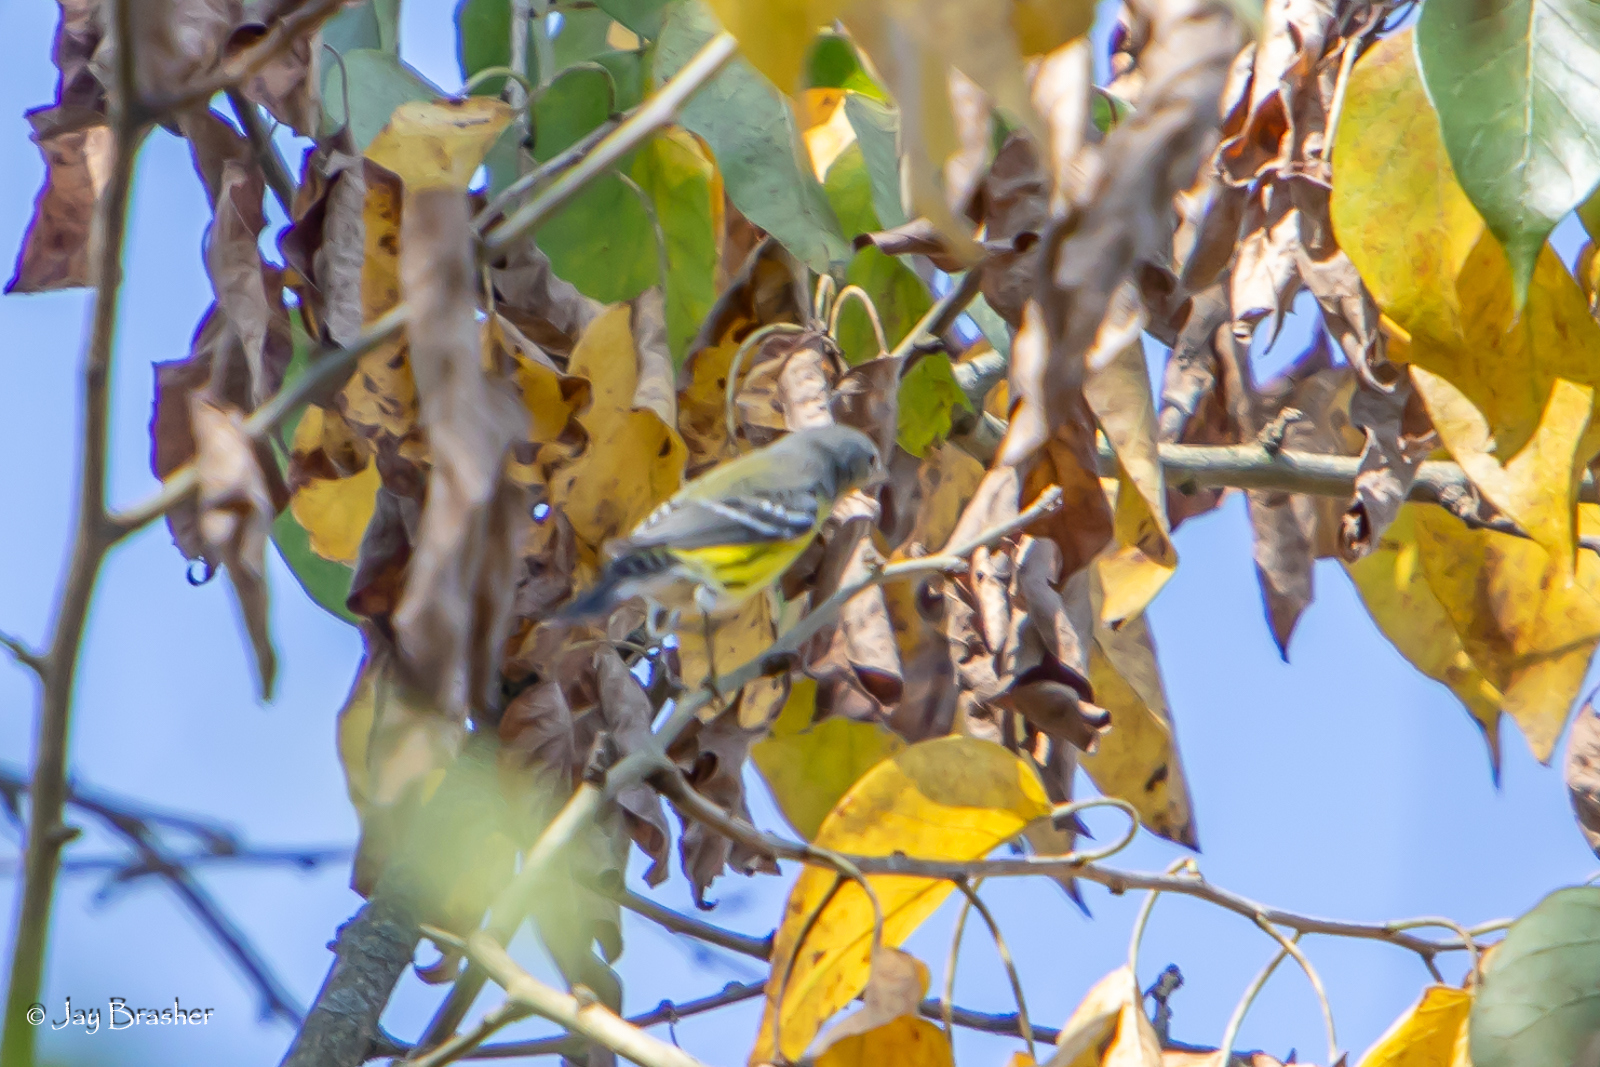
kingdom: Animalia
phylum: Chordata
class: Aves
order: Passeriformes
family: Parulidae
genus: Setophaga
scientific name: Setophaga magnolia
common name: Magnolia warbler
